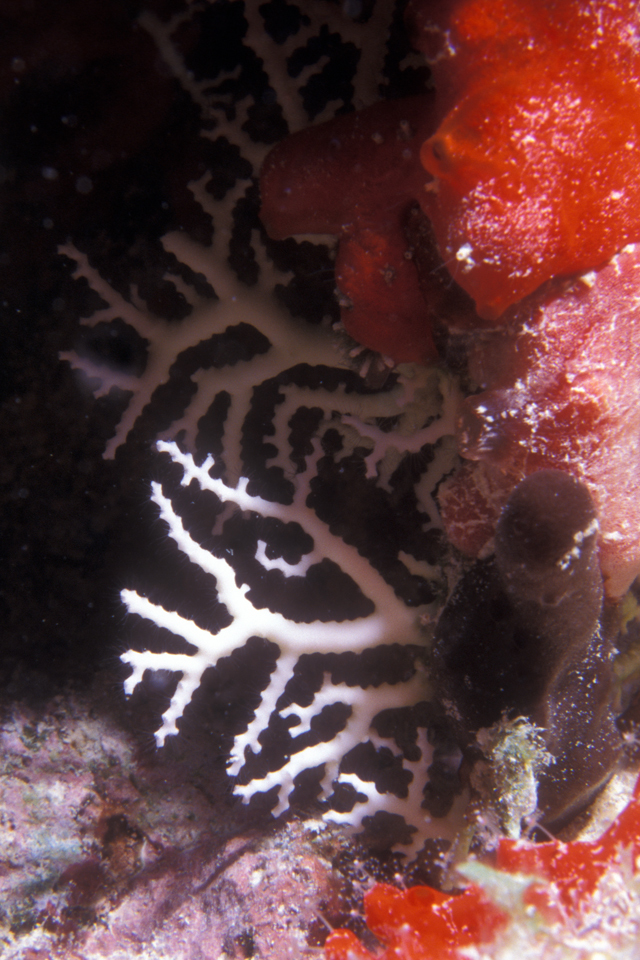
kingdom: Animalia
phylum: Cnidaria
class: Hydrozoa
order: Anthoathecata
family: Stylasteridae
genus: Stylaster
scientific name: Stylaster roseus
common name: Rose lace coral
